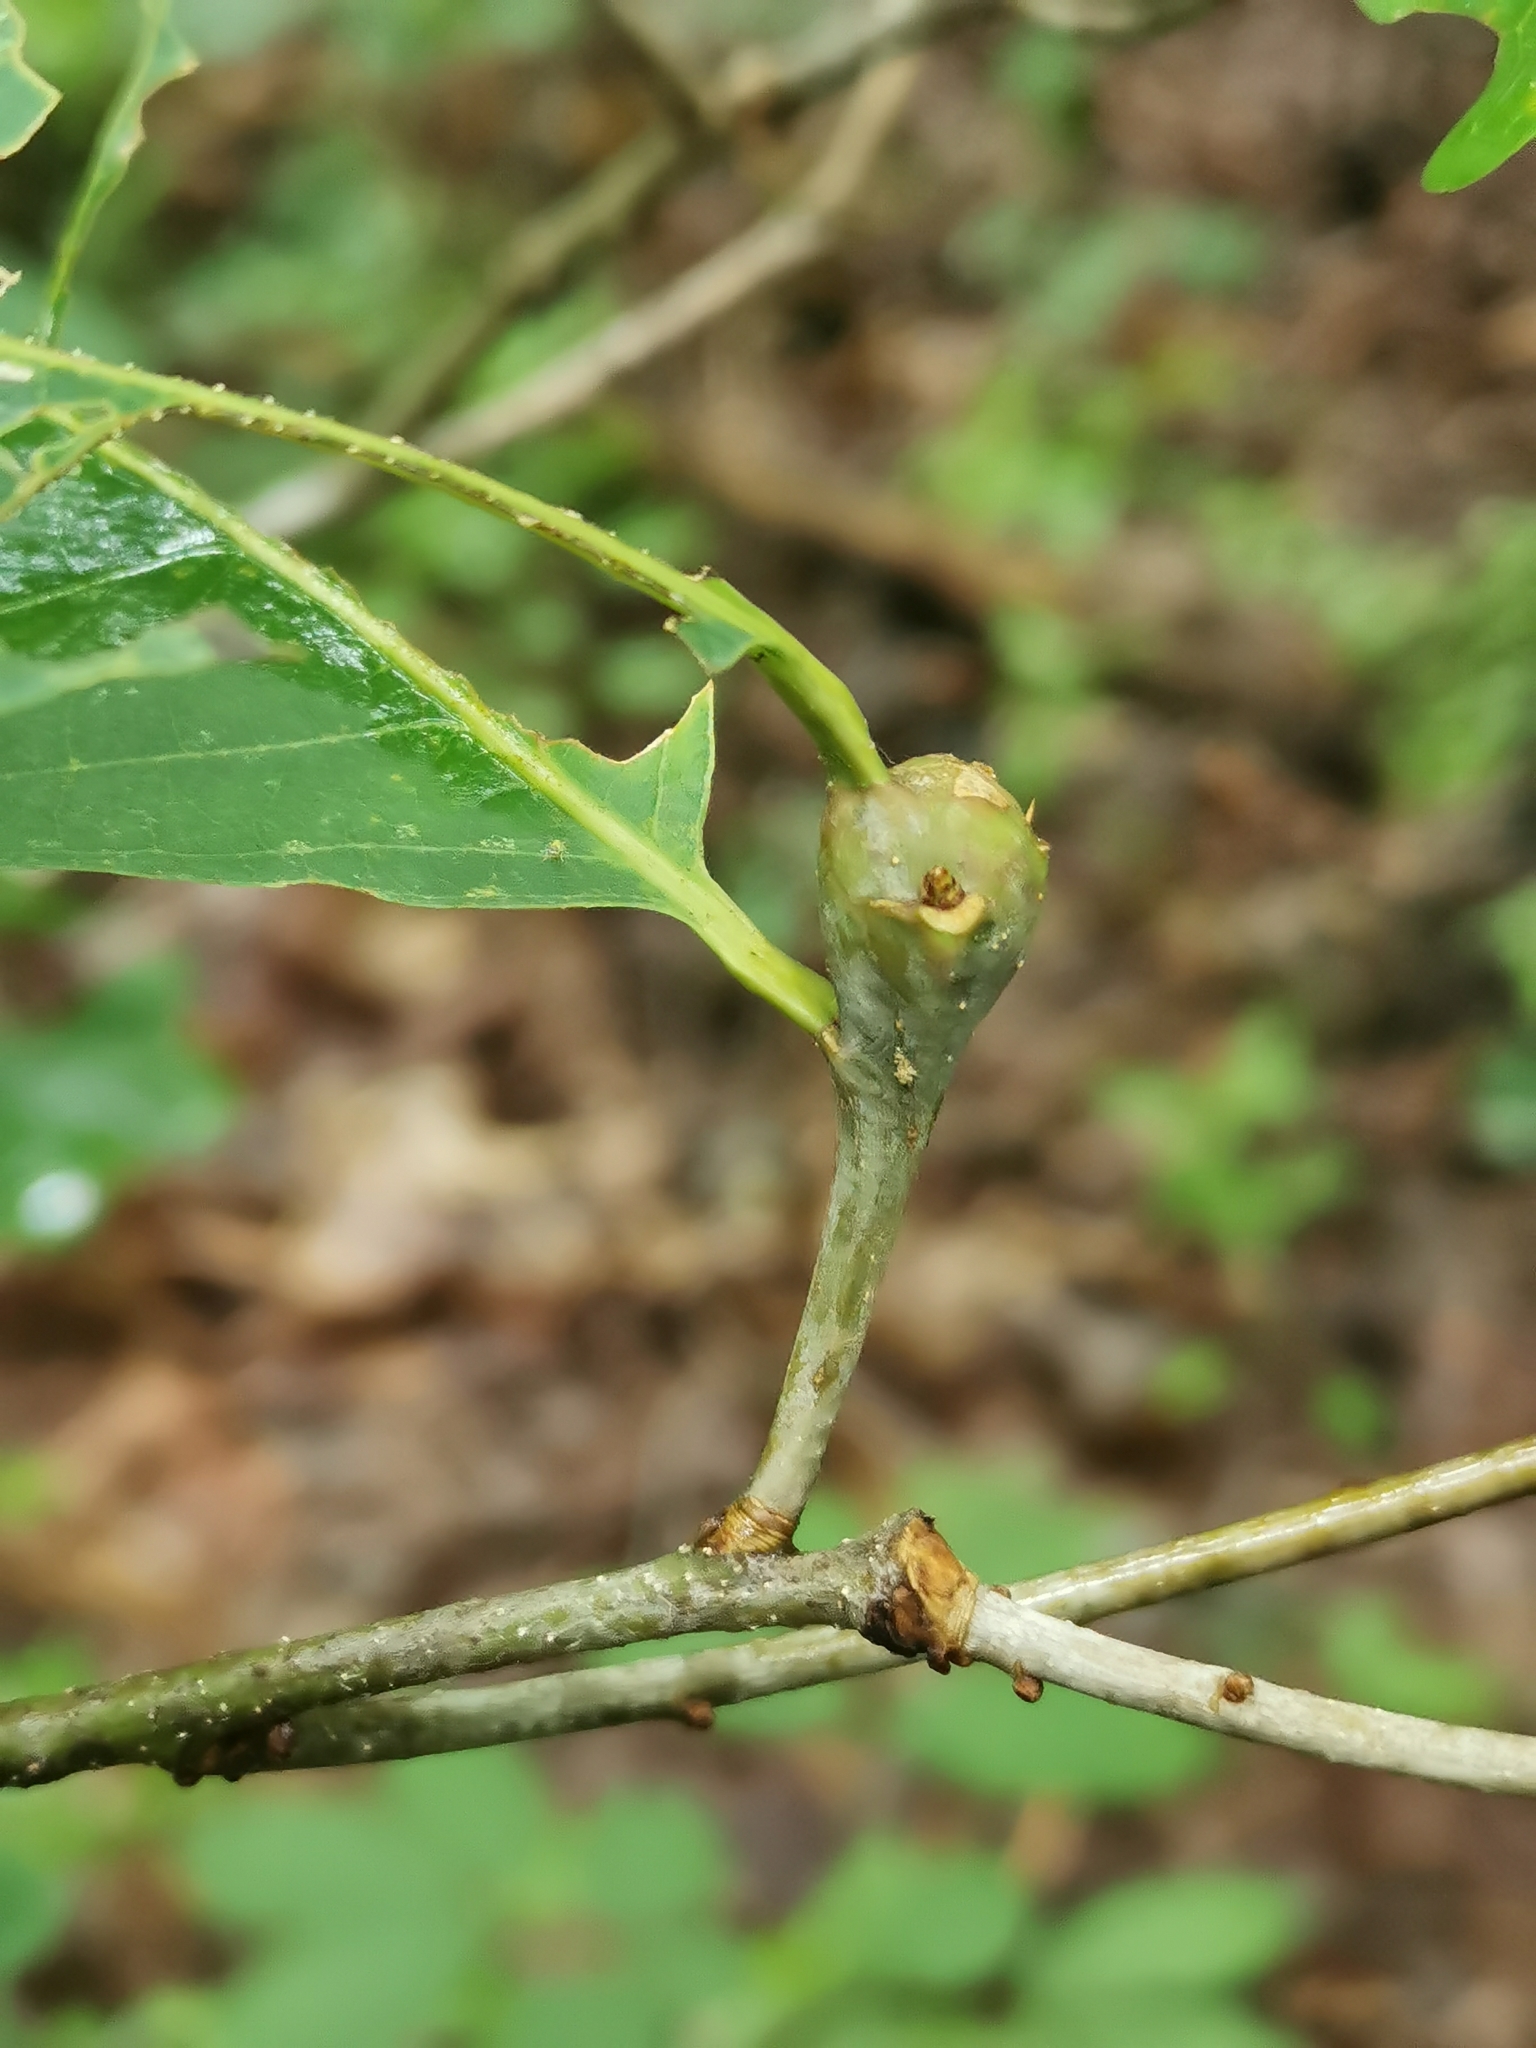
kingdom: Animalia
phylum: Arthropoda
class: Insecta
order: Hymenoptera
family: Cynipidae
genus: Callirhytis
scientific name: Callirhytis clavula
